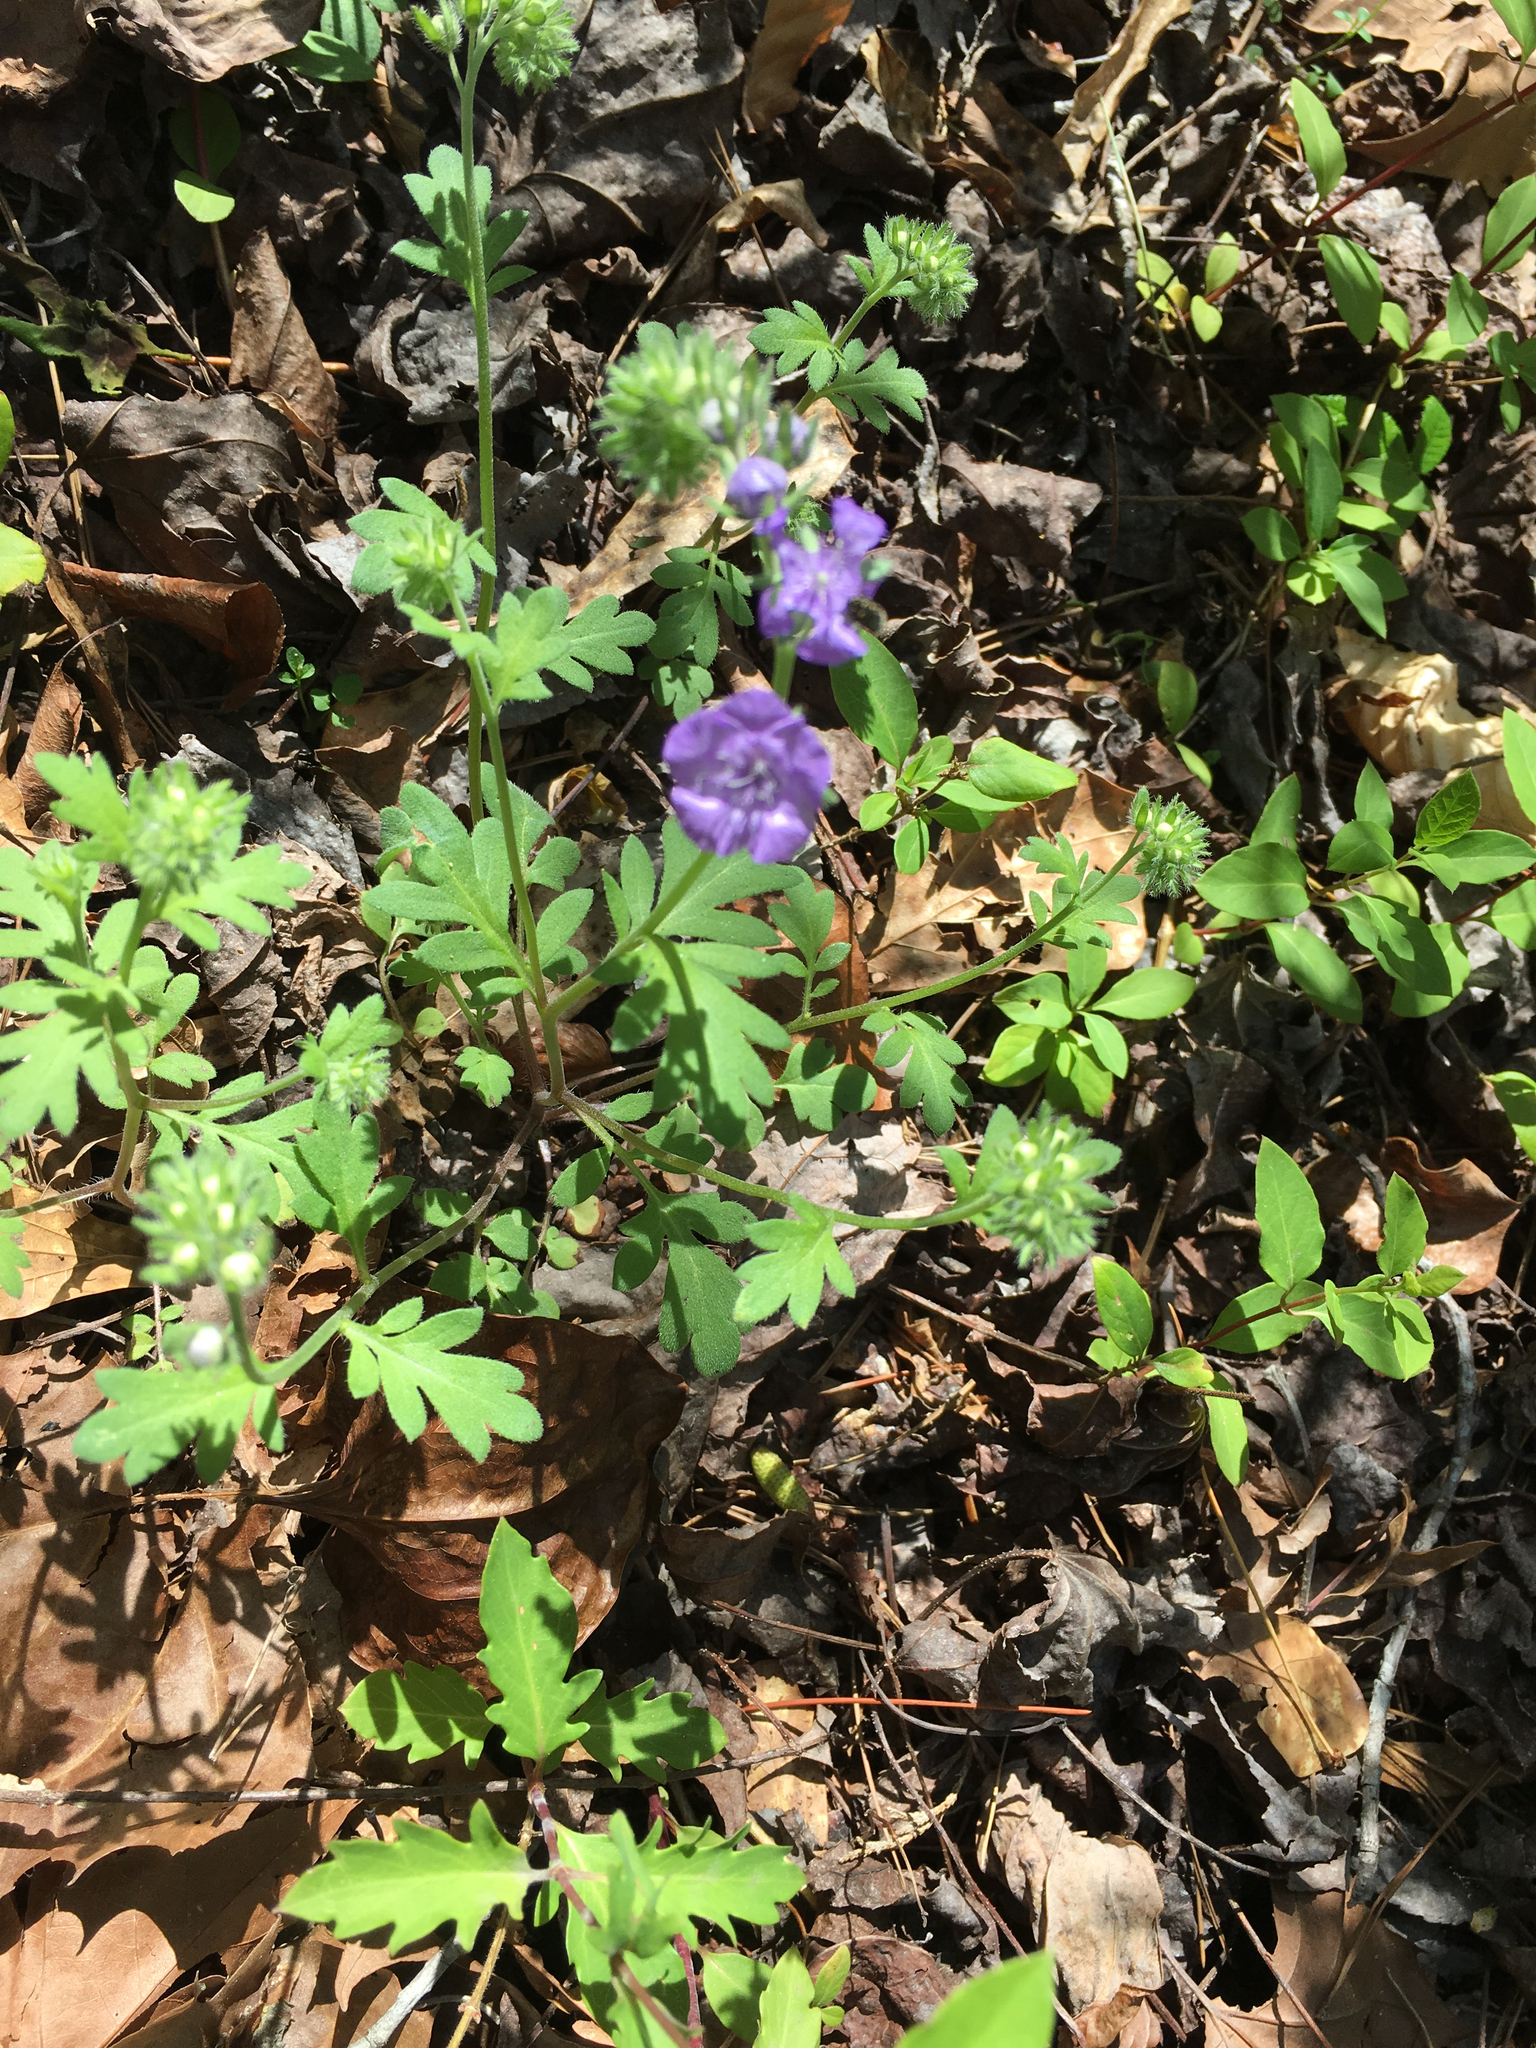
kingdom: Plantae
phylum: Tracheophyta
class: Magnoliopsida
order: Boraginales
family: Hydrophyllaceae
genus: Phacelia
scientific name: Phacelia maculata
